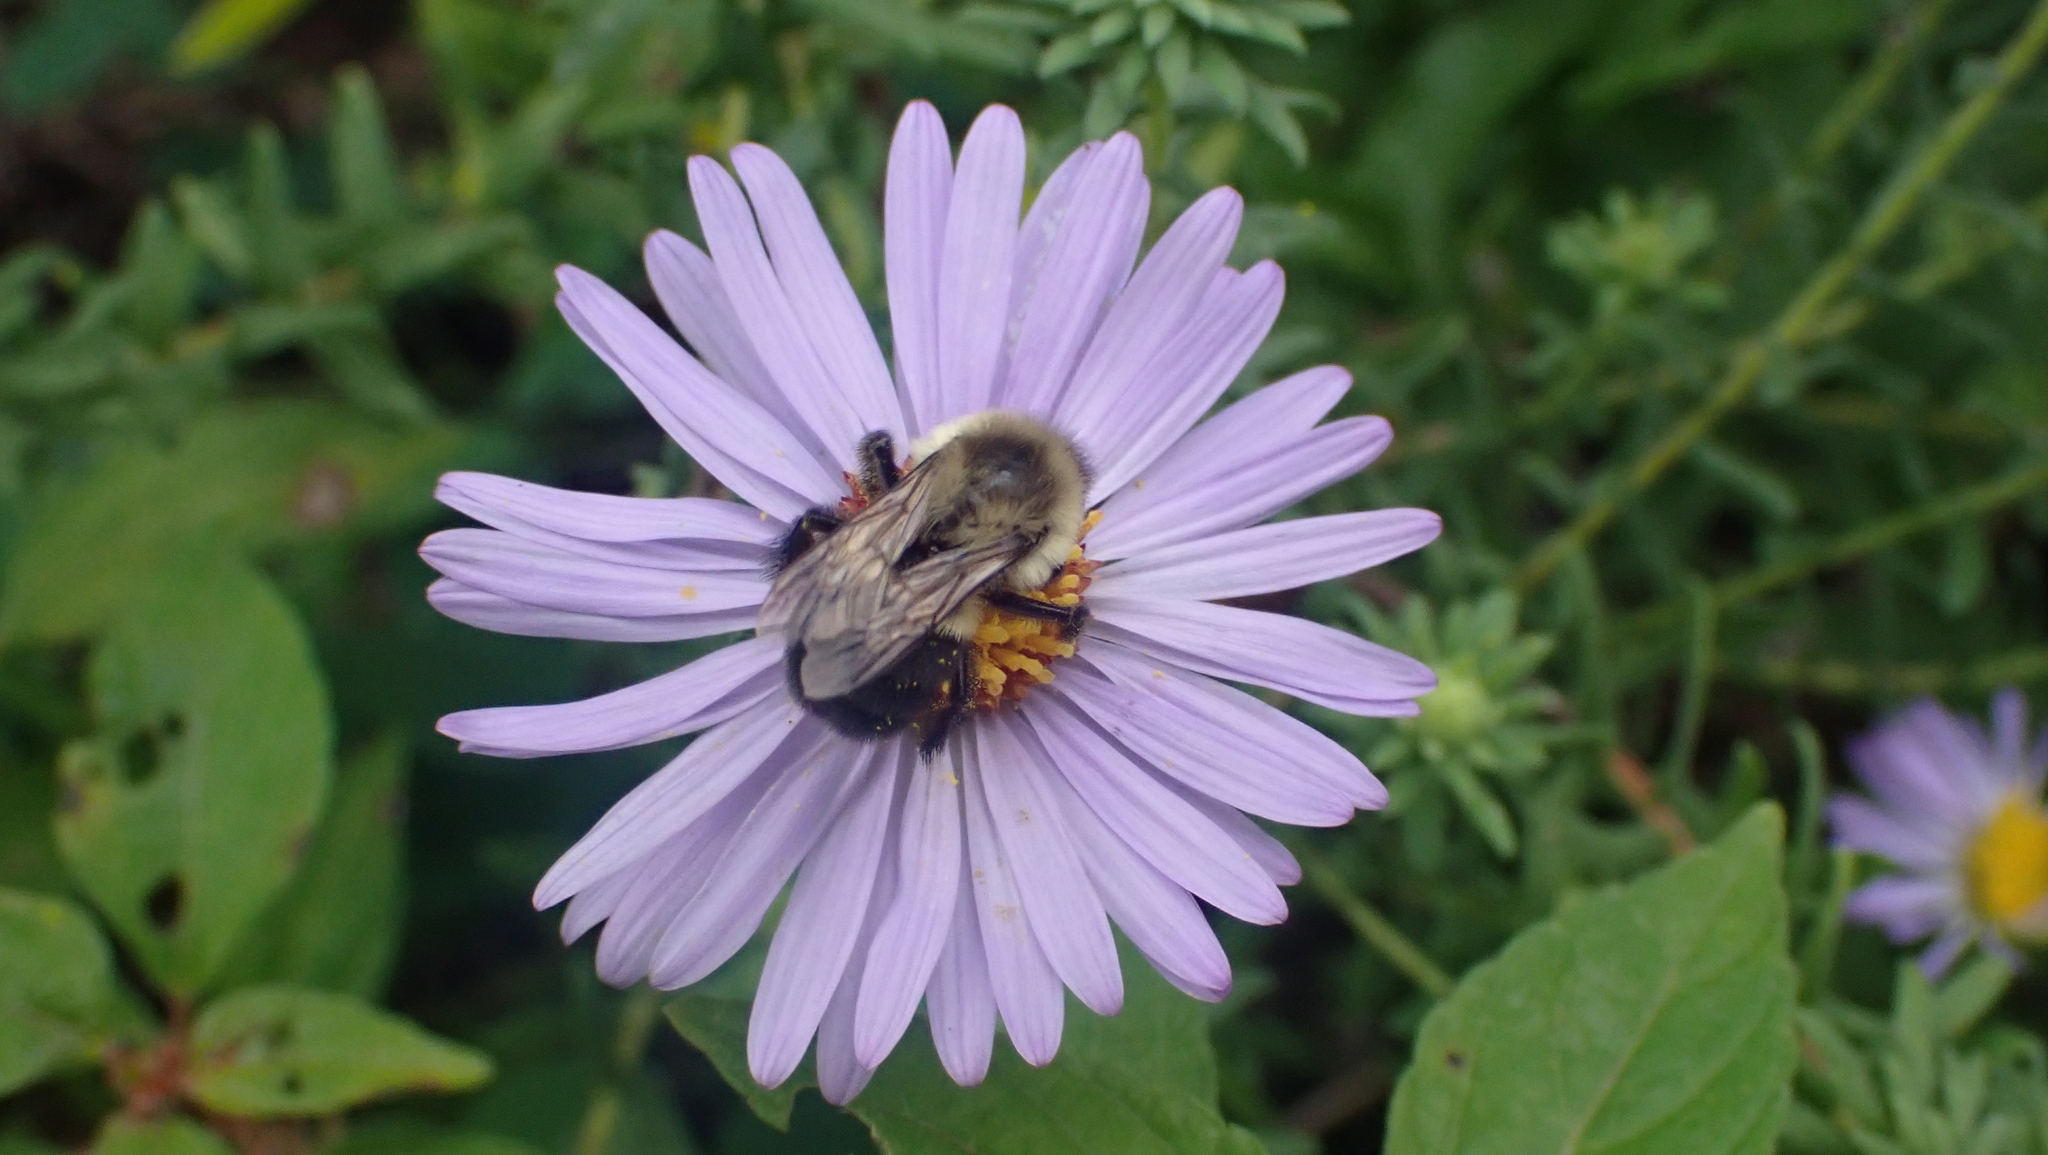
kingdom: Animalia
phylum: Arthropoda
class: Insecta
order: Hymenoptera
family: Apidae
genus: Bombus
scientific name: Bombus impatiens
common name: Common eastern bumble bee
